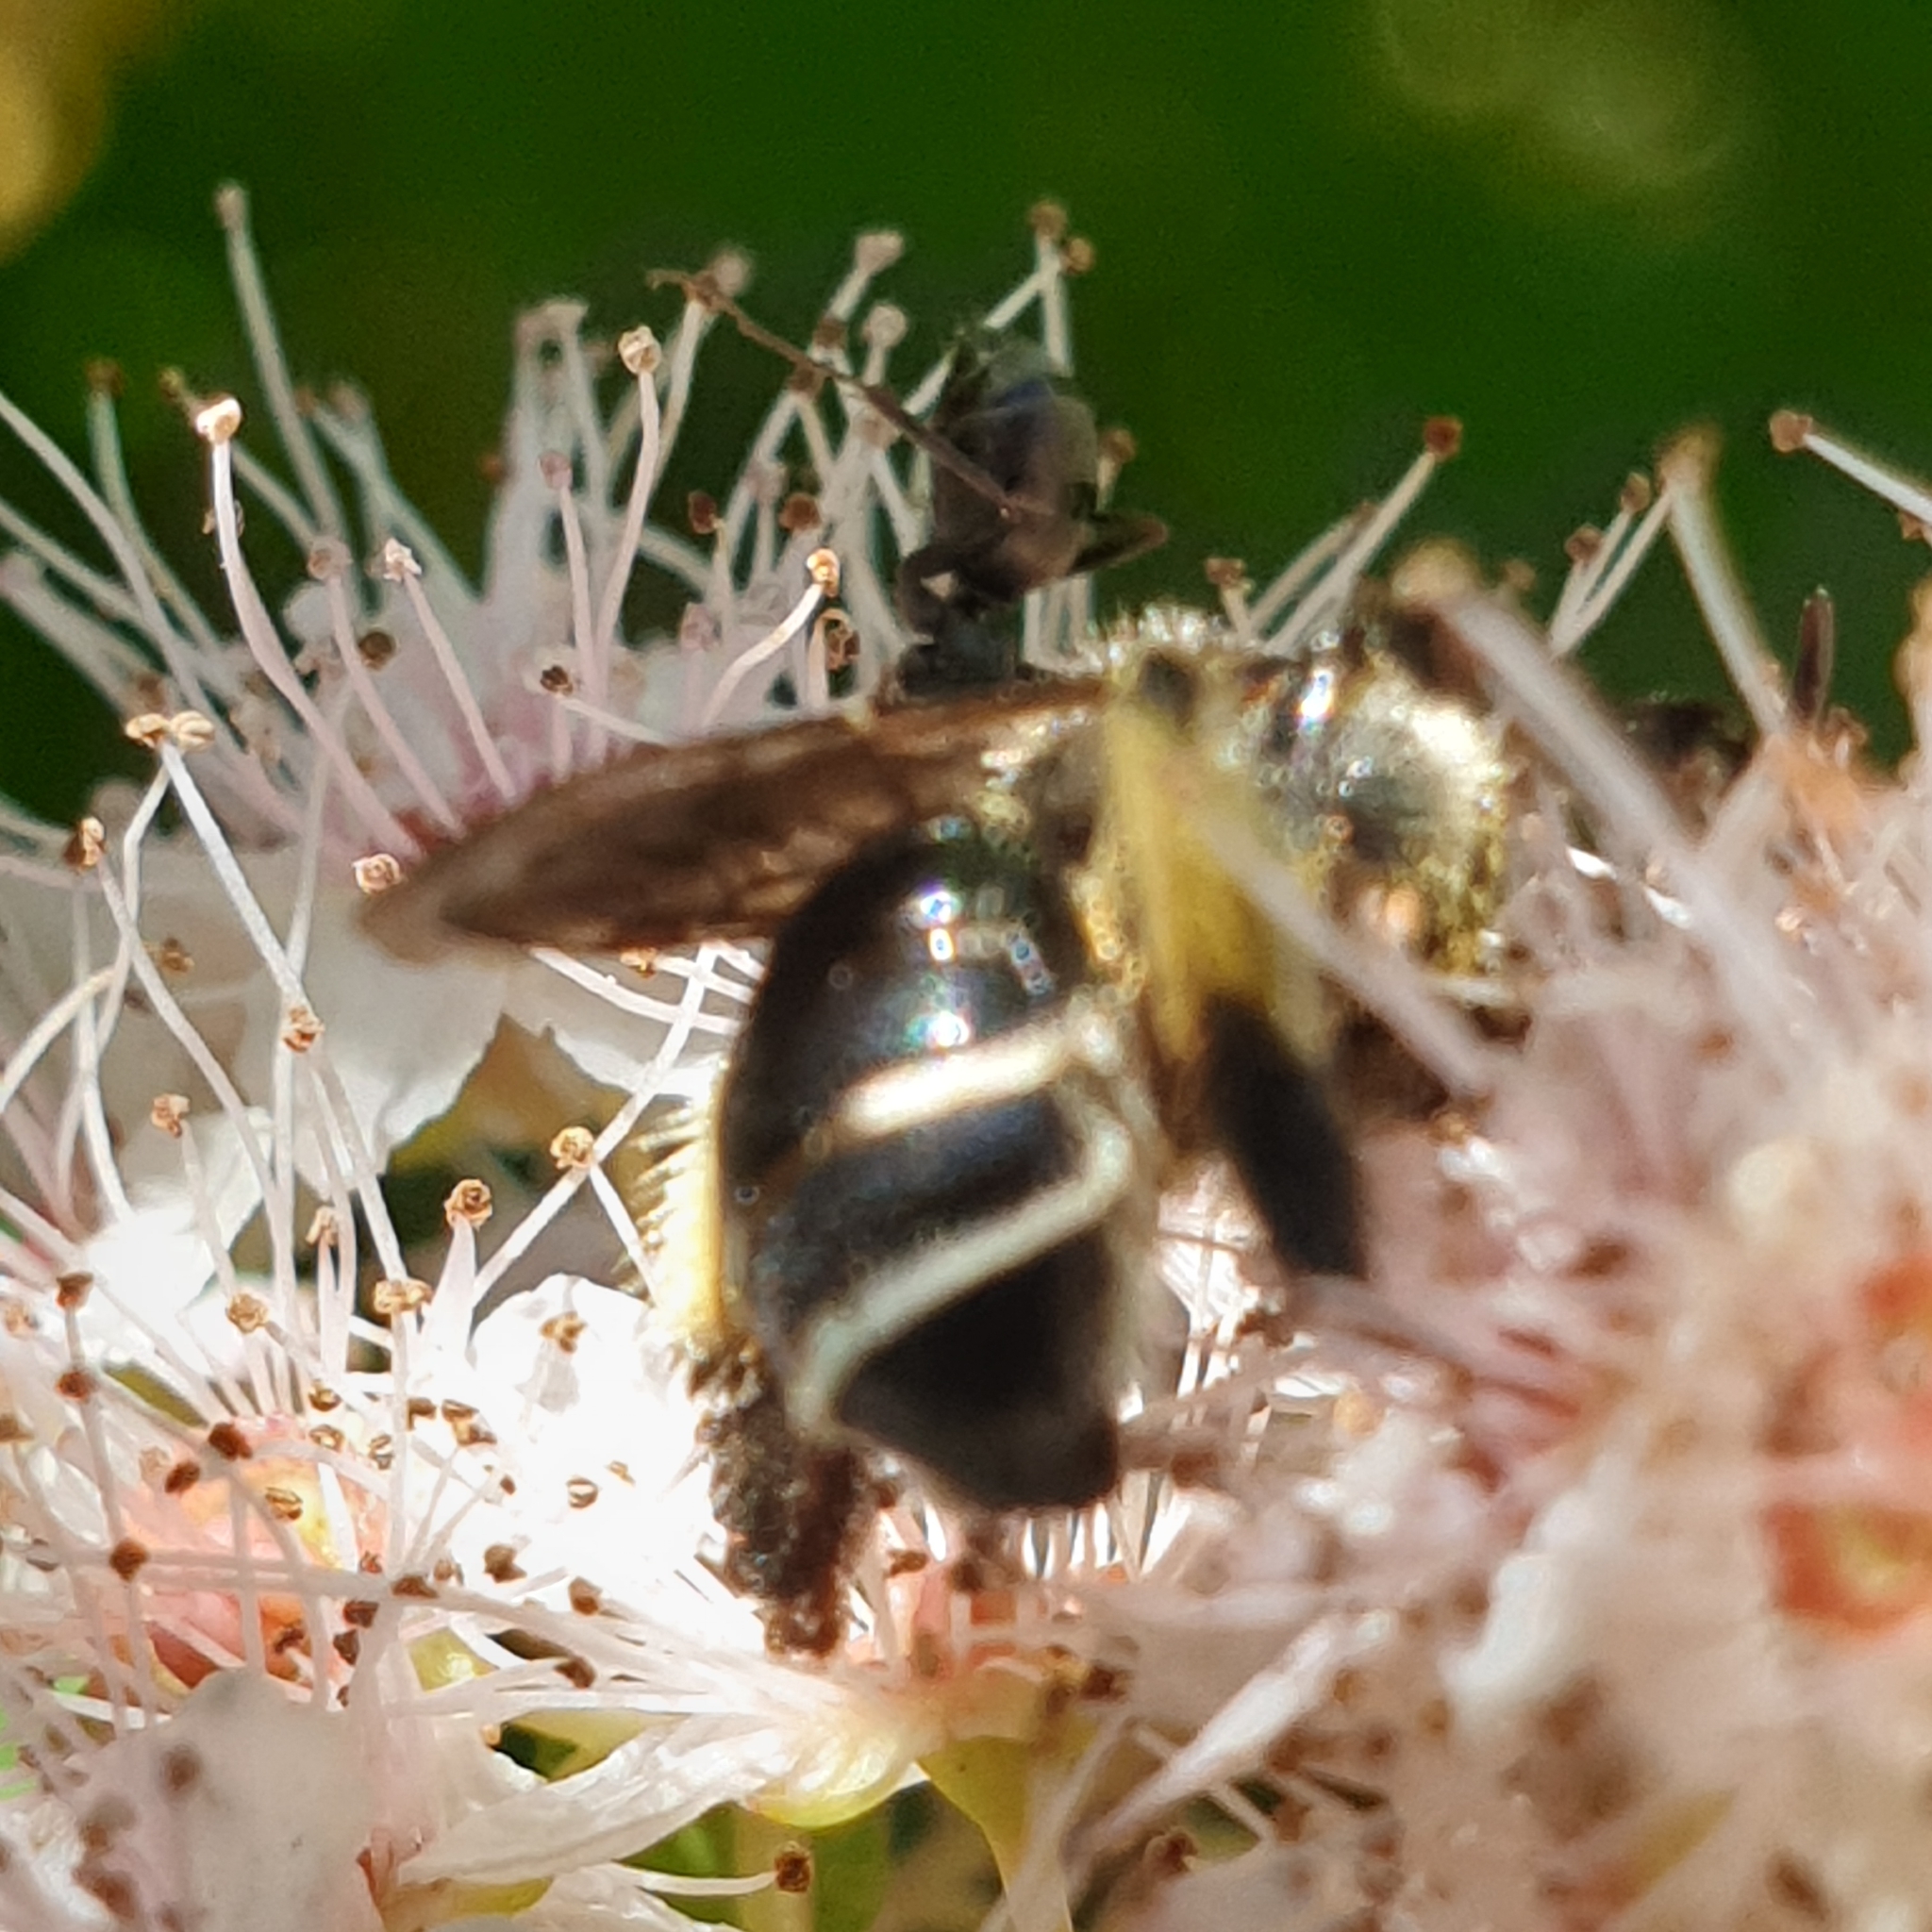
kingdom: Animalia
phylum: Arthropoda
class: Insecta
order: Hymenoptera
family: Melittidae
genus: Macropis
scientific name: Macropis europaea
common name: Yellow loosestrife bee
